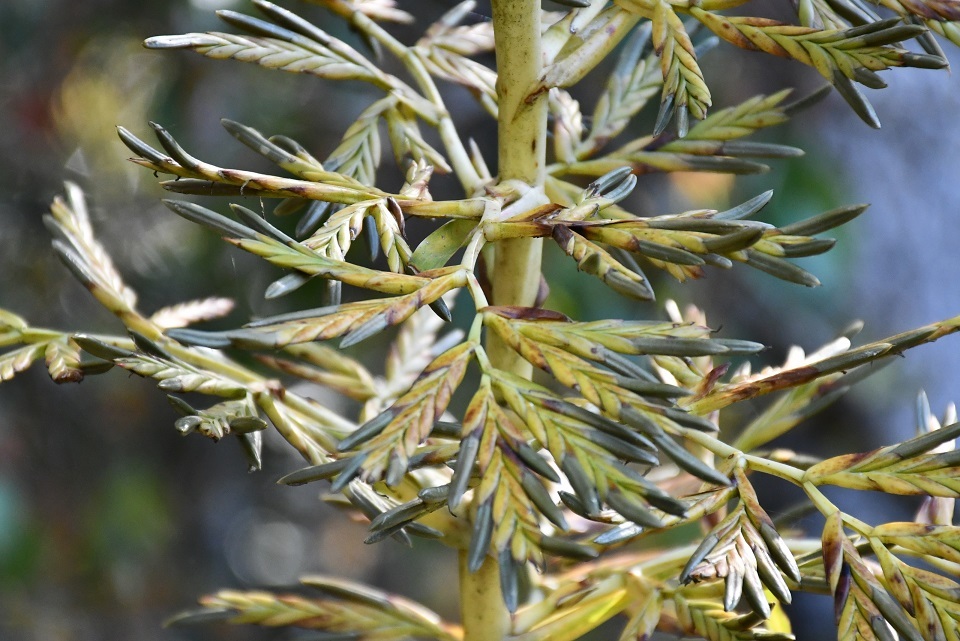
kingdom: Plantae
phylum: Tracheophyta
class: Liliopsida
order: Poales
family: Bromeliaceae
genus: Tillandsia
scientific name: Tillandsia excelsa
